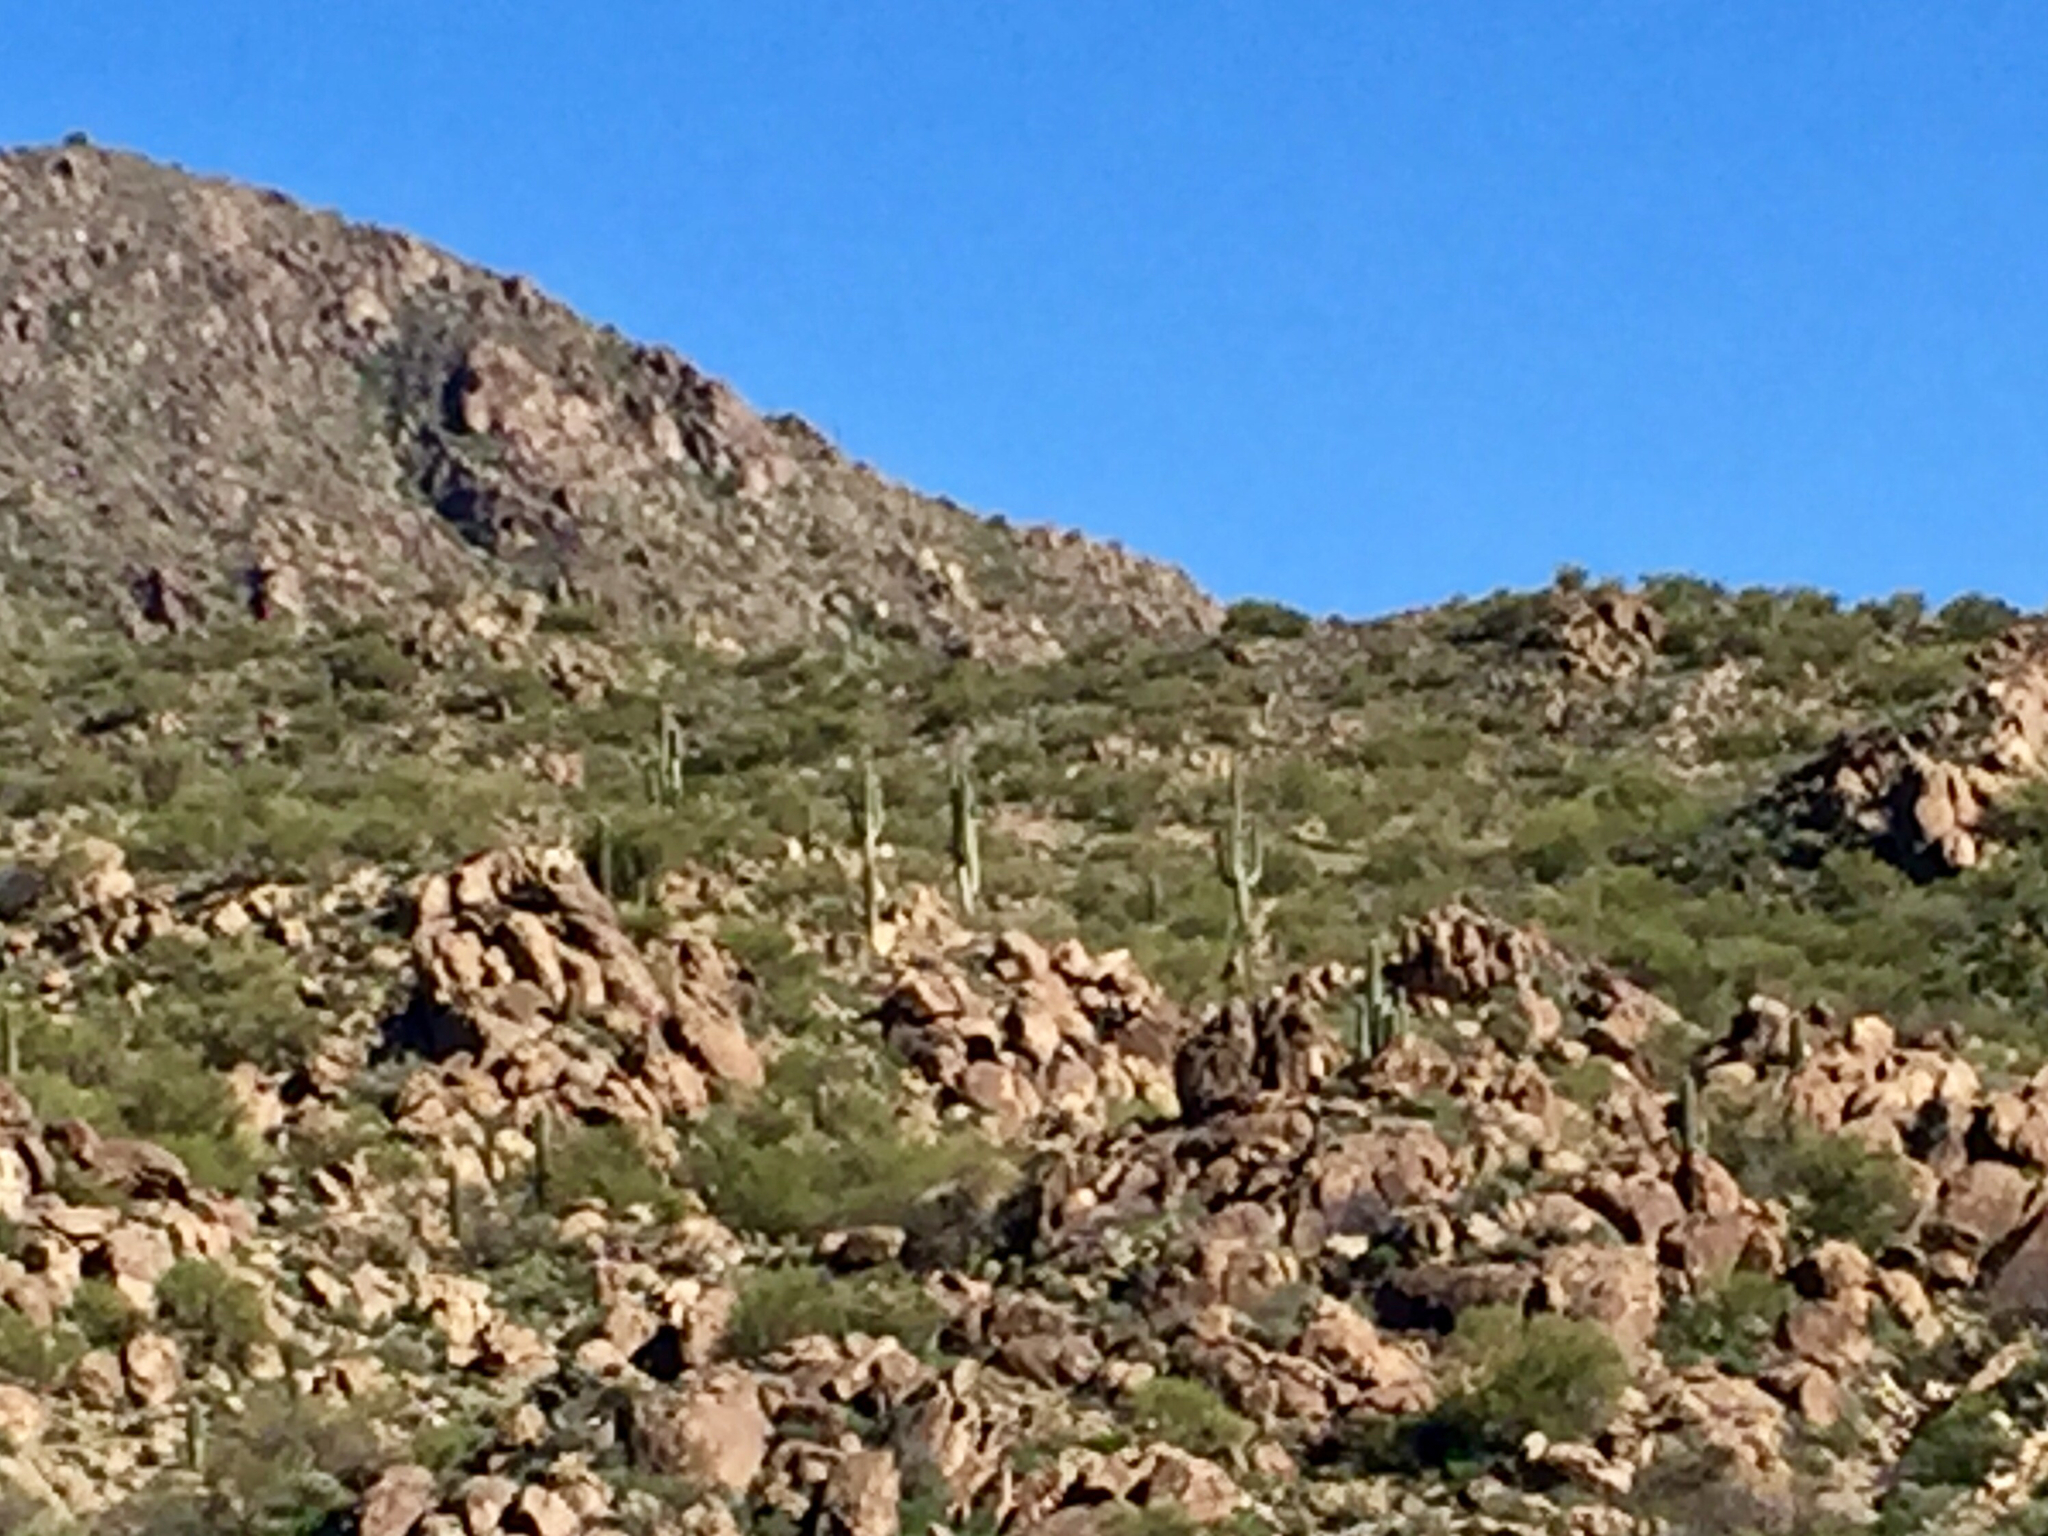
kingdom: Plantae
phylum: Tracheophyta
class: Magnoliopsida
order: Caryophyllales
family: Cactaceae
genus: Carnegiea
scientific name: Carnegiea gigantea
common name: Saguaro
